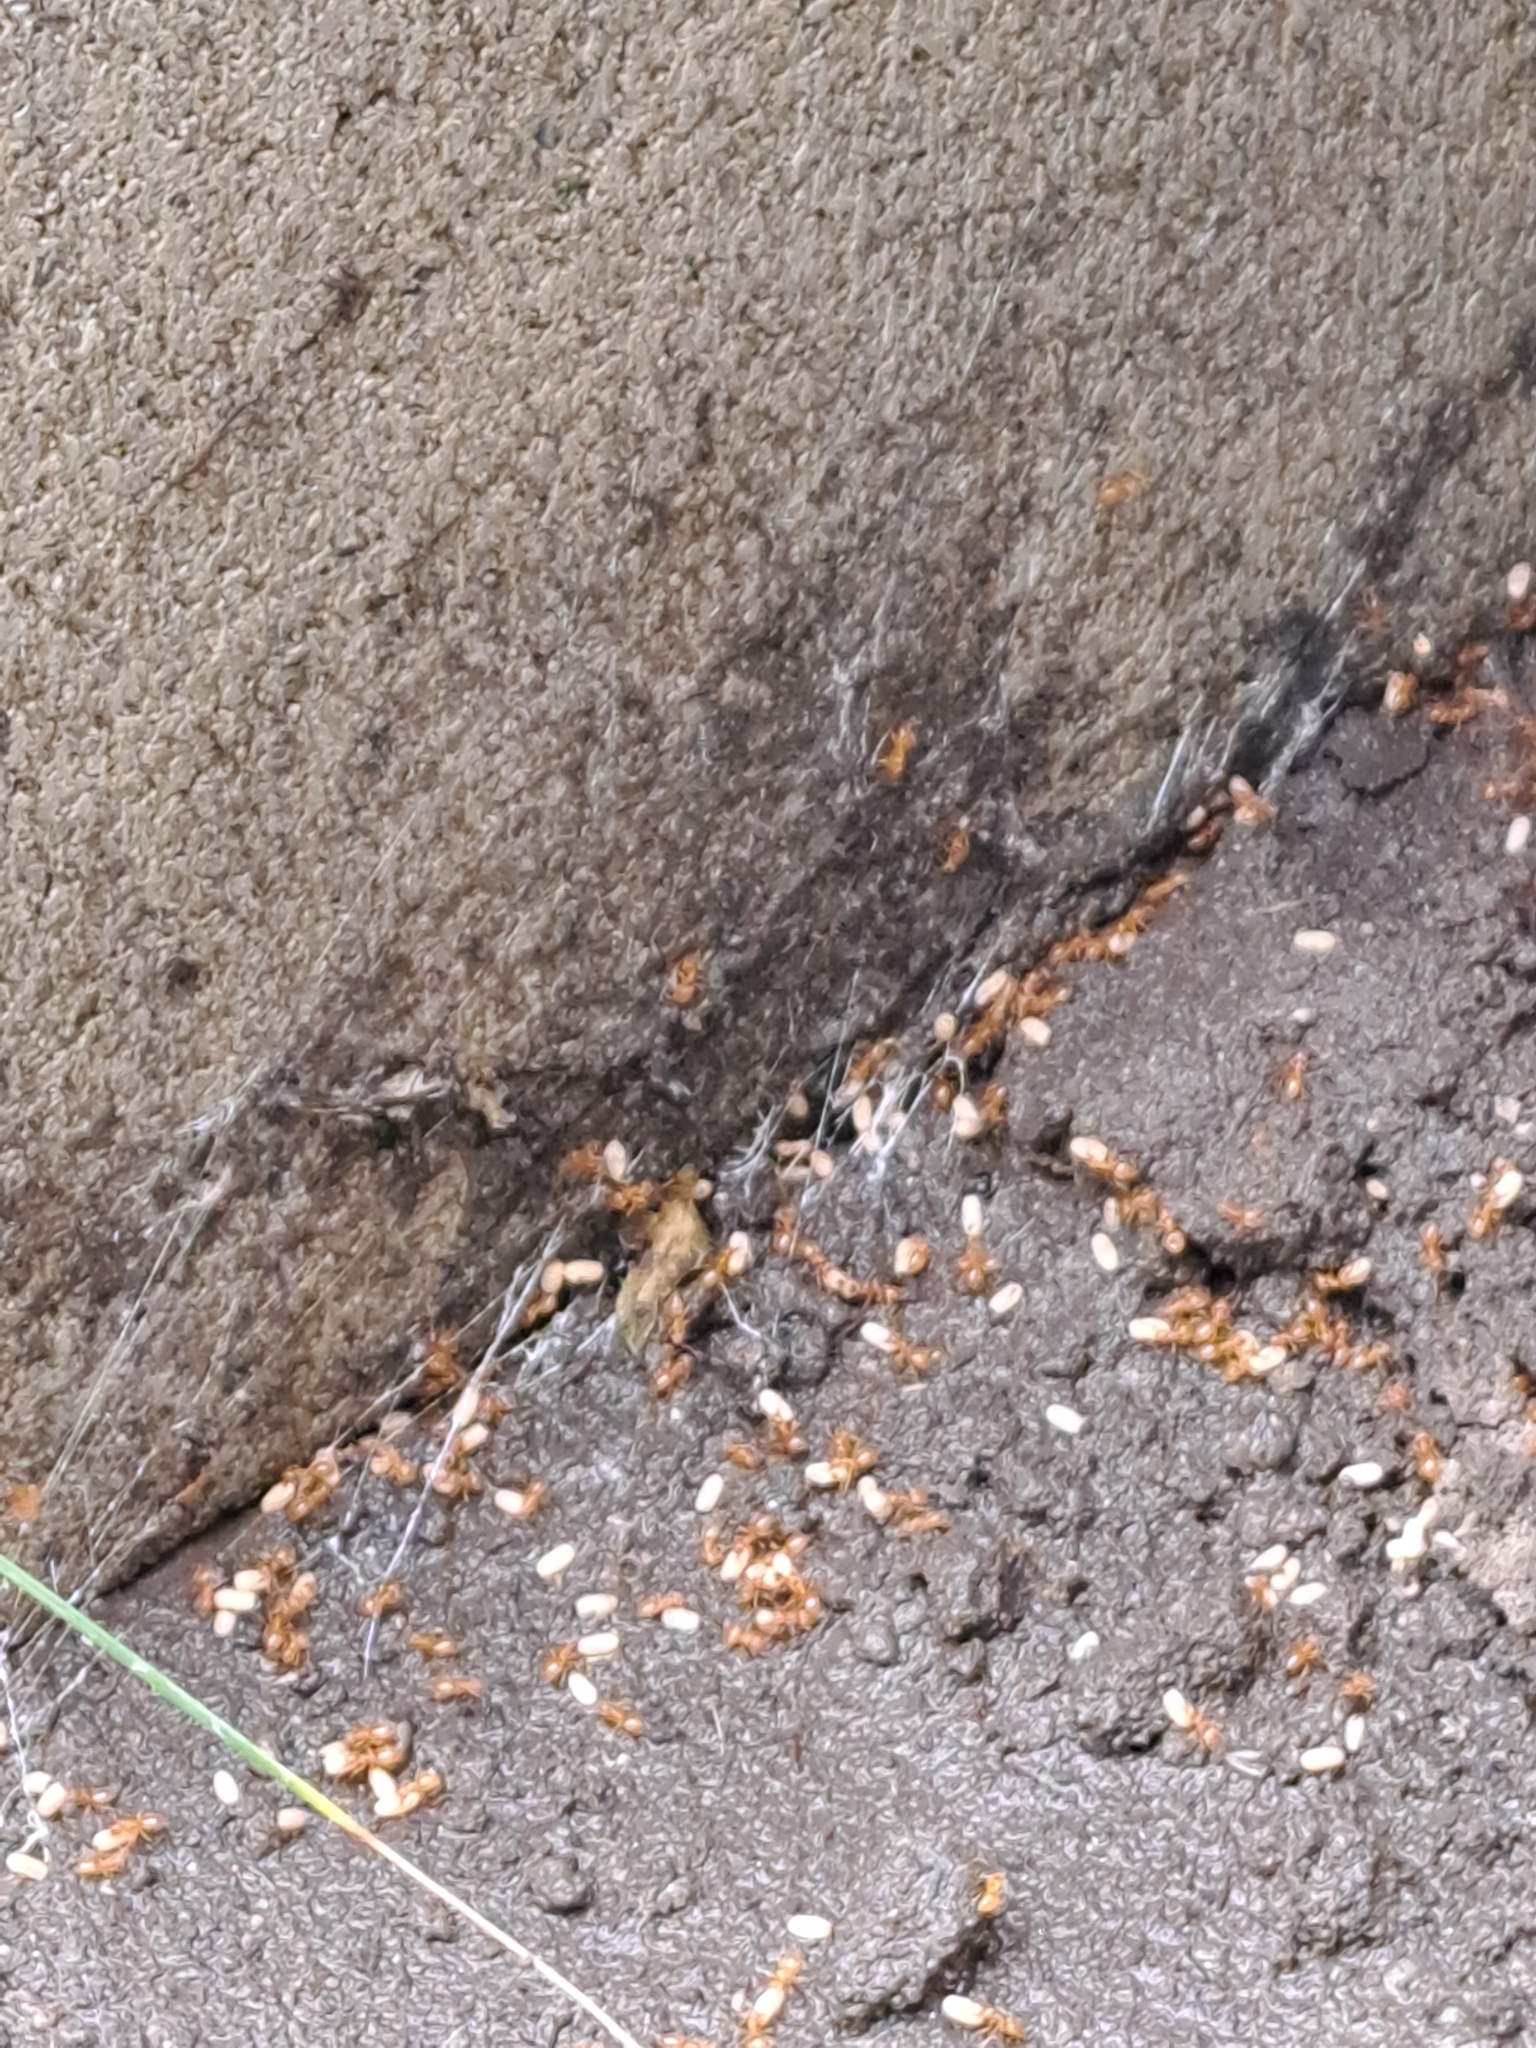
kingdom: Animalia
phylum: Arthropoda
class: Insecta
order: Hymenoptera
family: Formicidae
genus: Lasius
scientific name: Lasius claviger
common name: Common citronella ant
